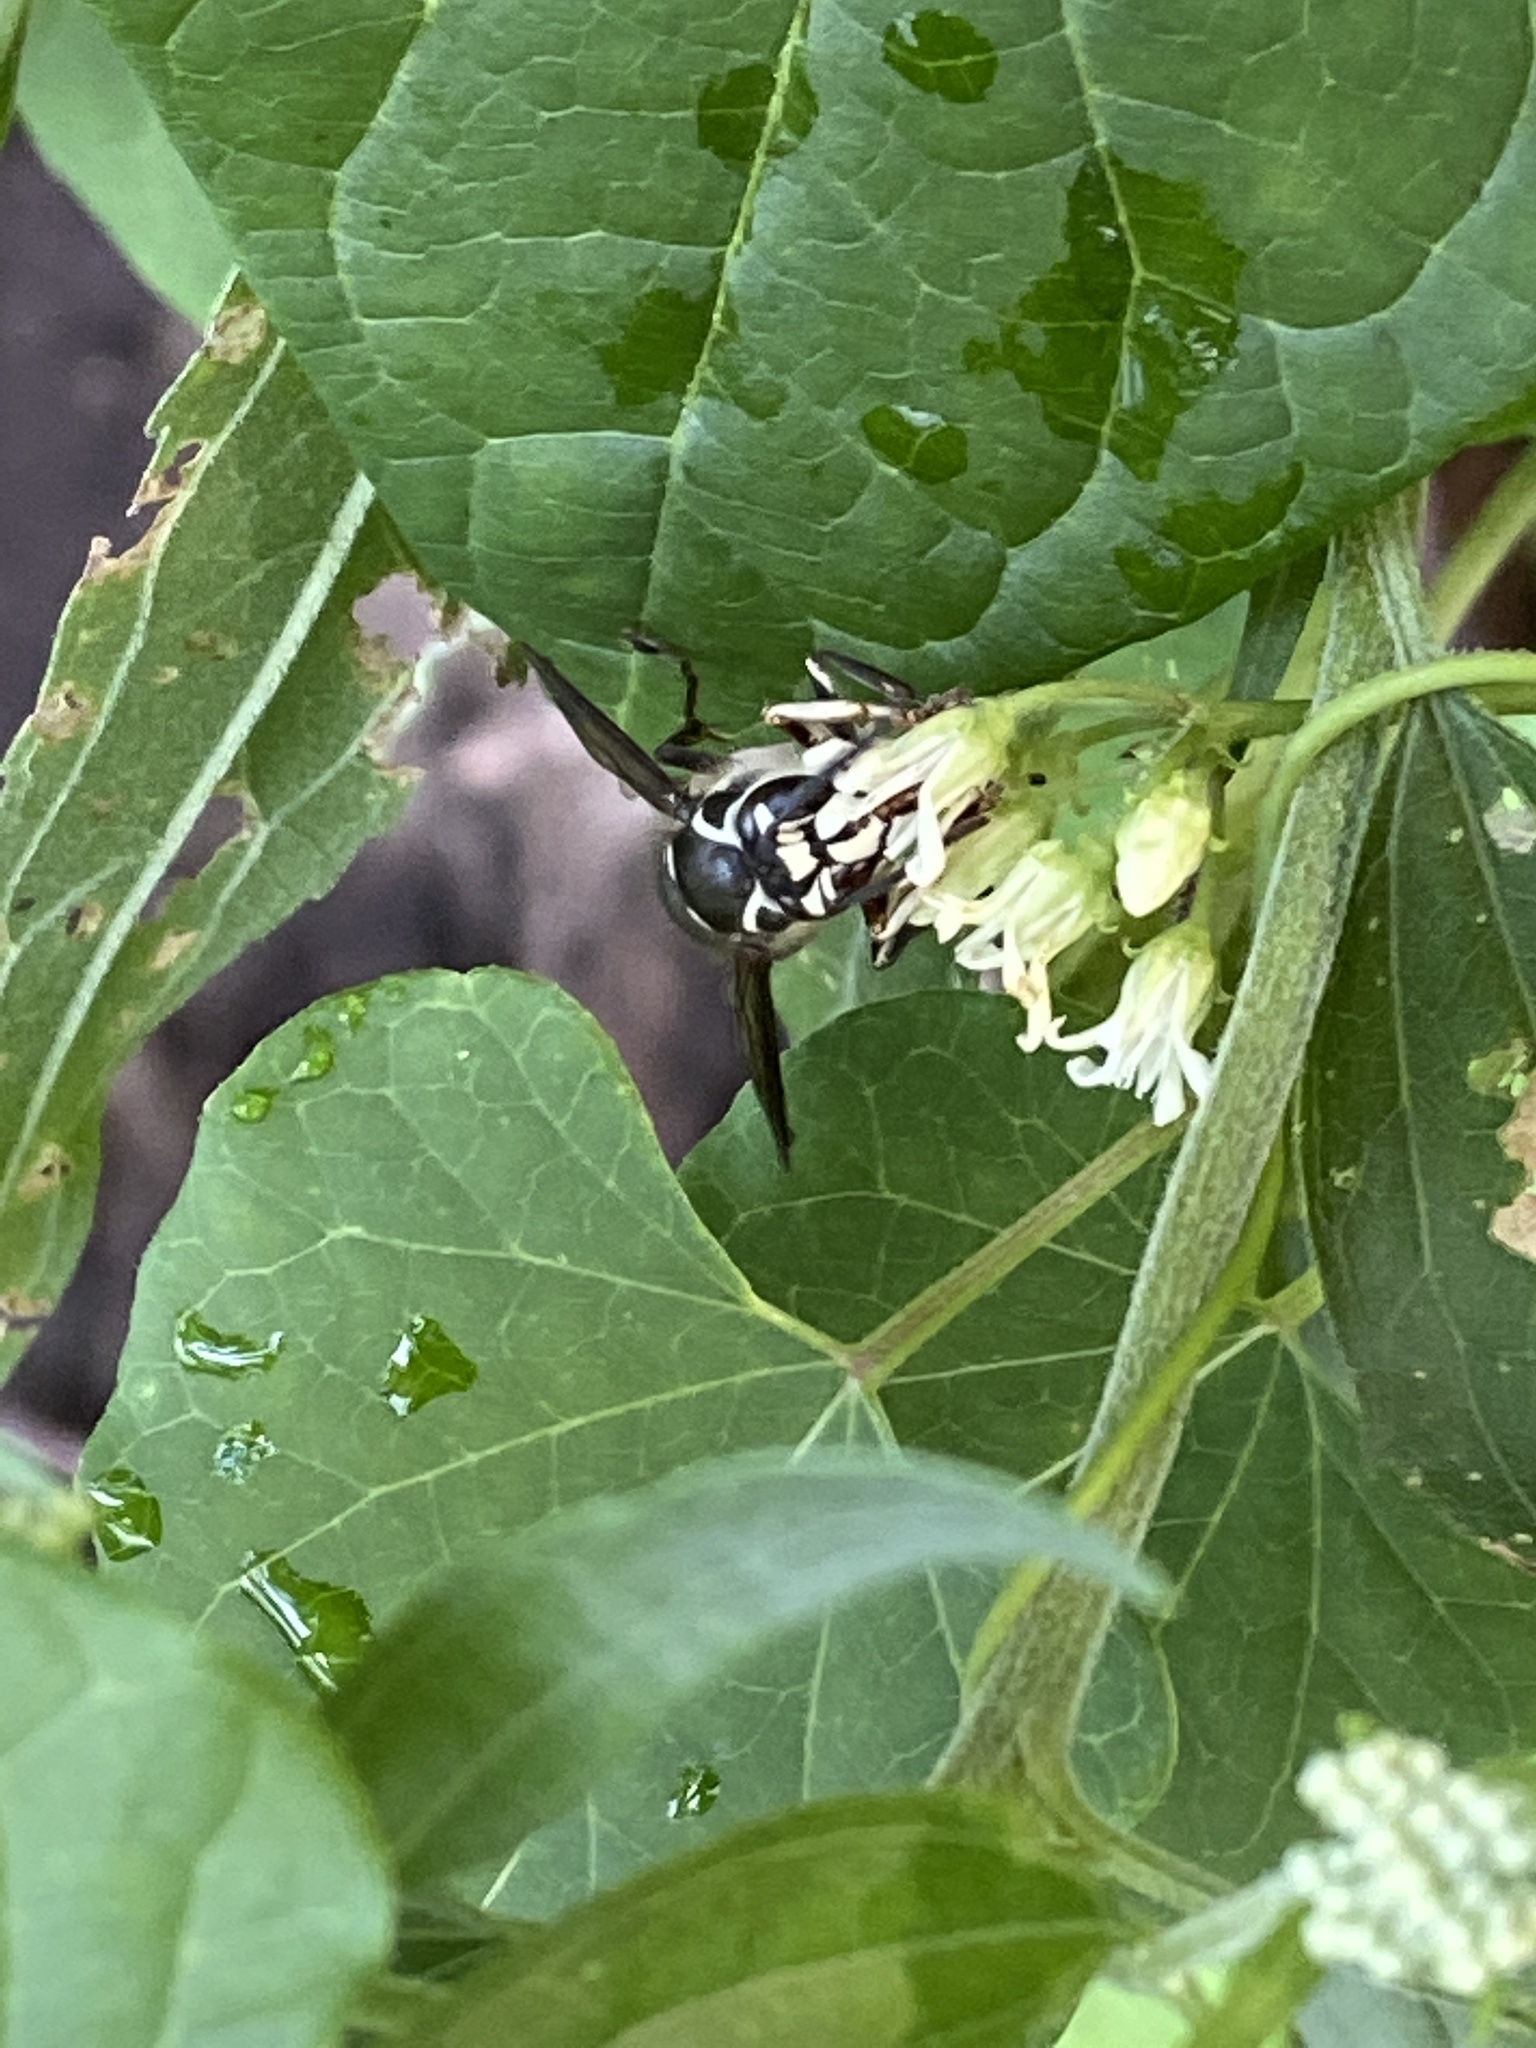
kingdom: Animalia
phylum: Arthropoda
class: Insecta
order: Hymenoptera
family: Vespidae
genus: Dolichovespula
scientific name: Dolichovespula maculata
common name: Bald-faced hornet
